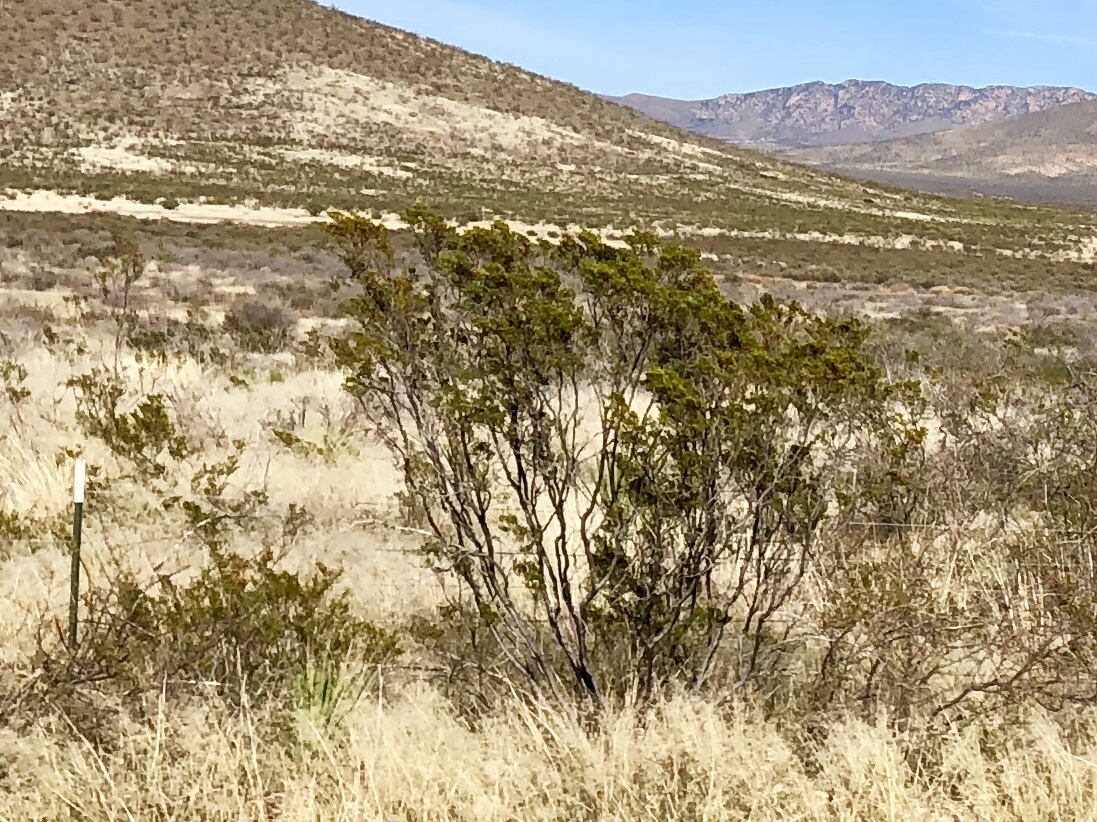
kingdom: Plantae
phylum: Tracheophyta
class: Magnoliopsida
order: Zygophyllales
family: Zygophyllaceae
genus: Larrea
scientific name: Larrea tridentata
